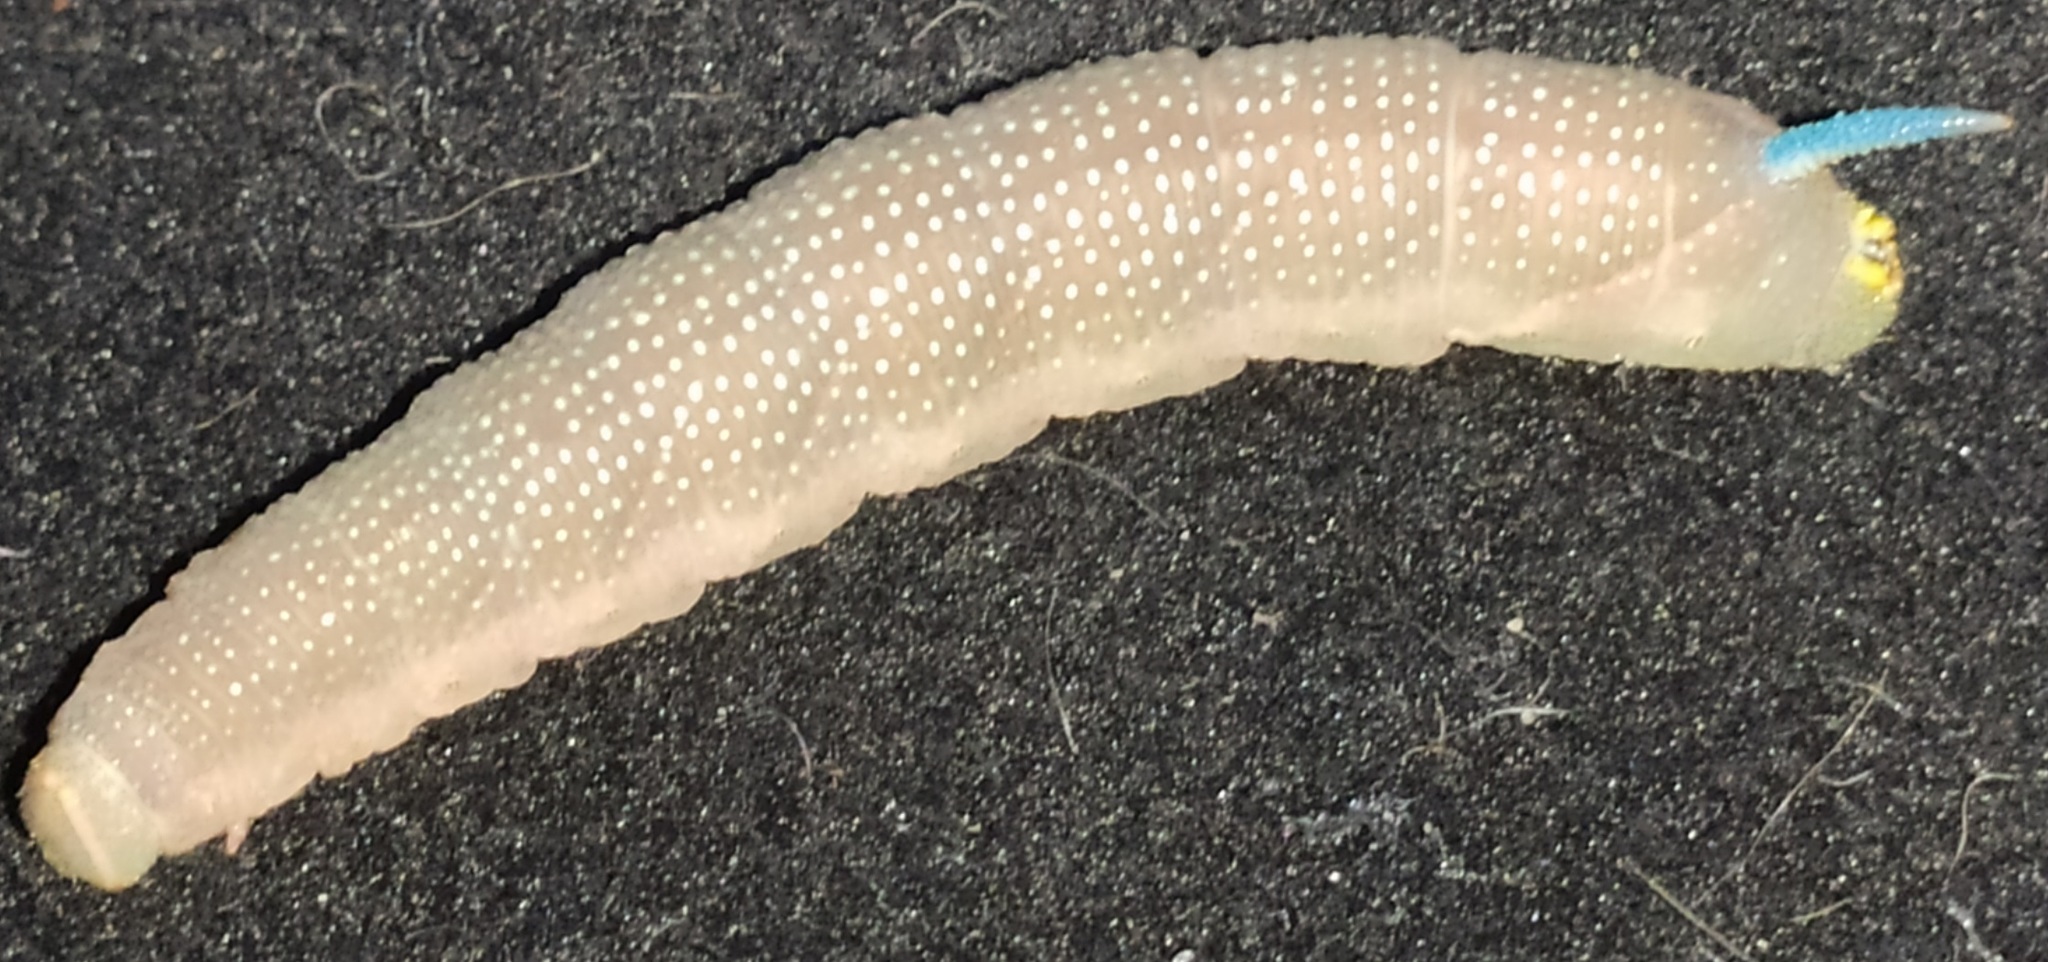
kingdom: Animalia
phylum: Arthropoda
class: Insecta
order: Lepidoptera
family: Sphingidae
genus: Mimas
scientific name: Mimas tiliae
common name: Lime hawk-moth
